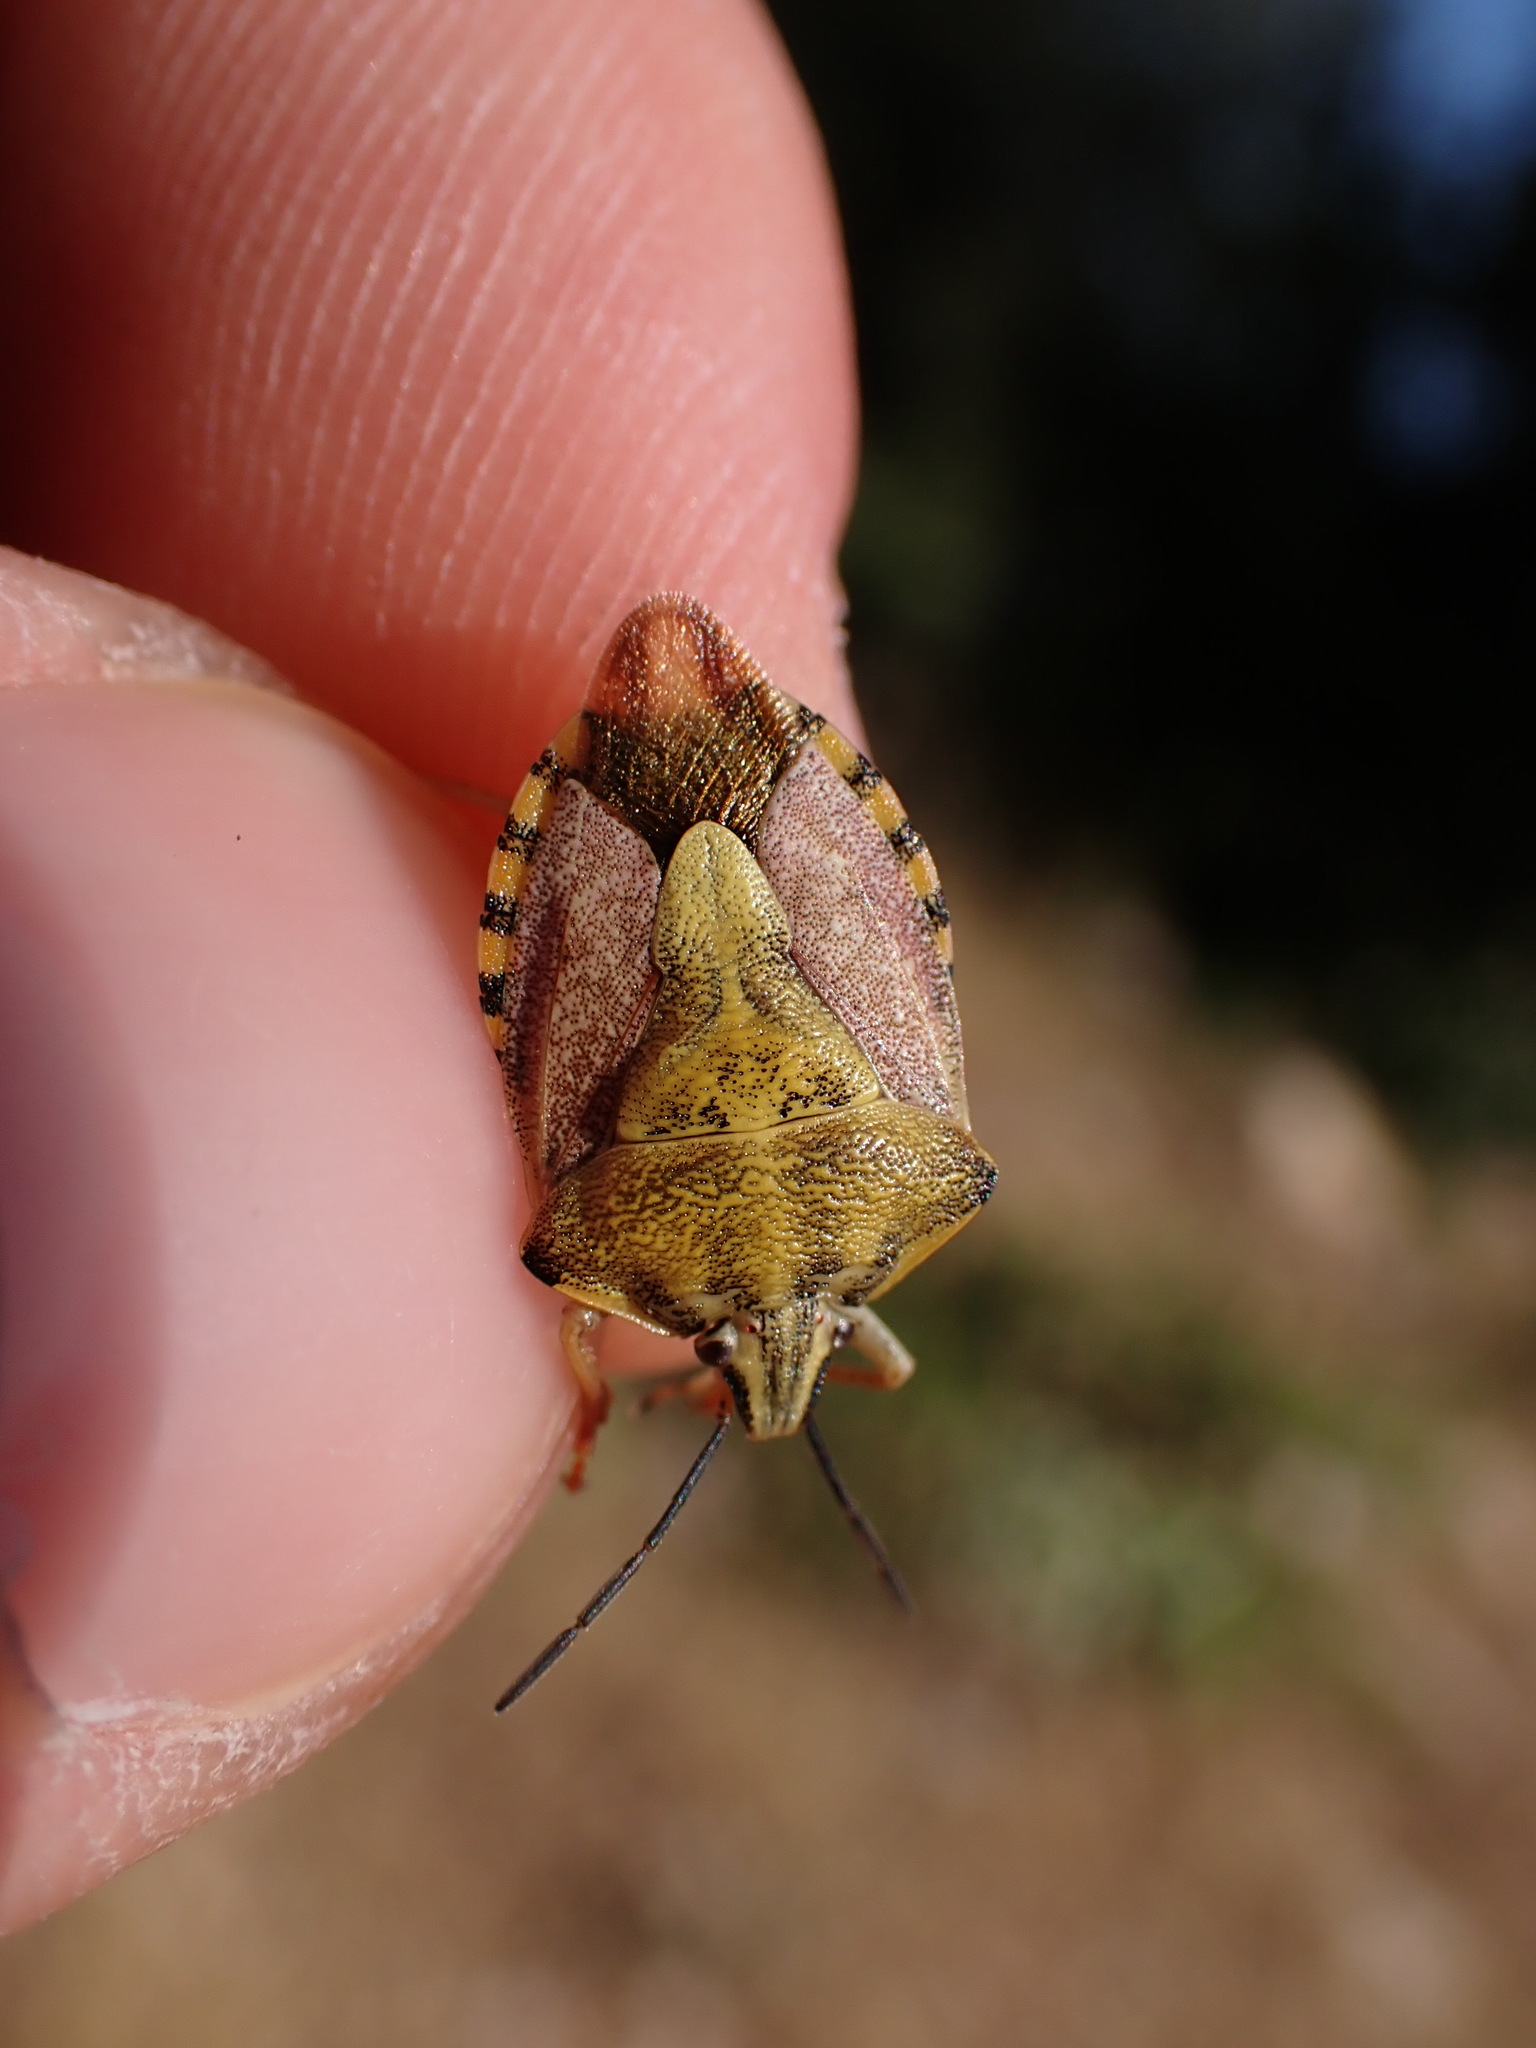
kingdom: Animalia
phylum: Arthropoda
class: Insecta
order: Hemiptera
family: Pentatomidae
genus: Carpocoris
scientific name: Carpocoris purpureipennis
